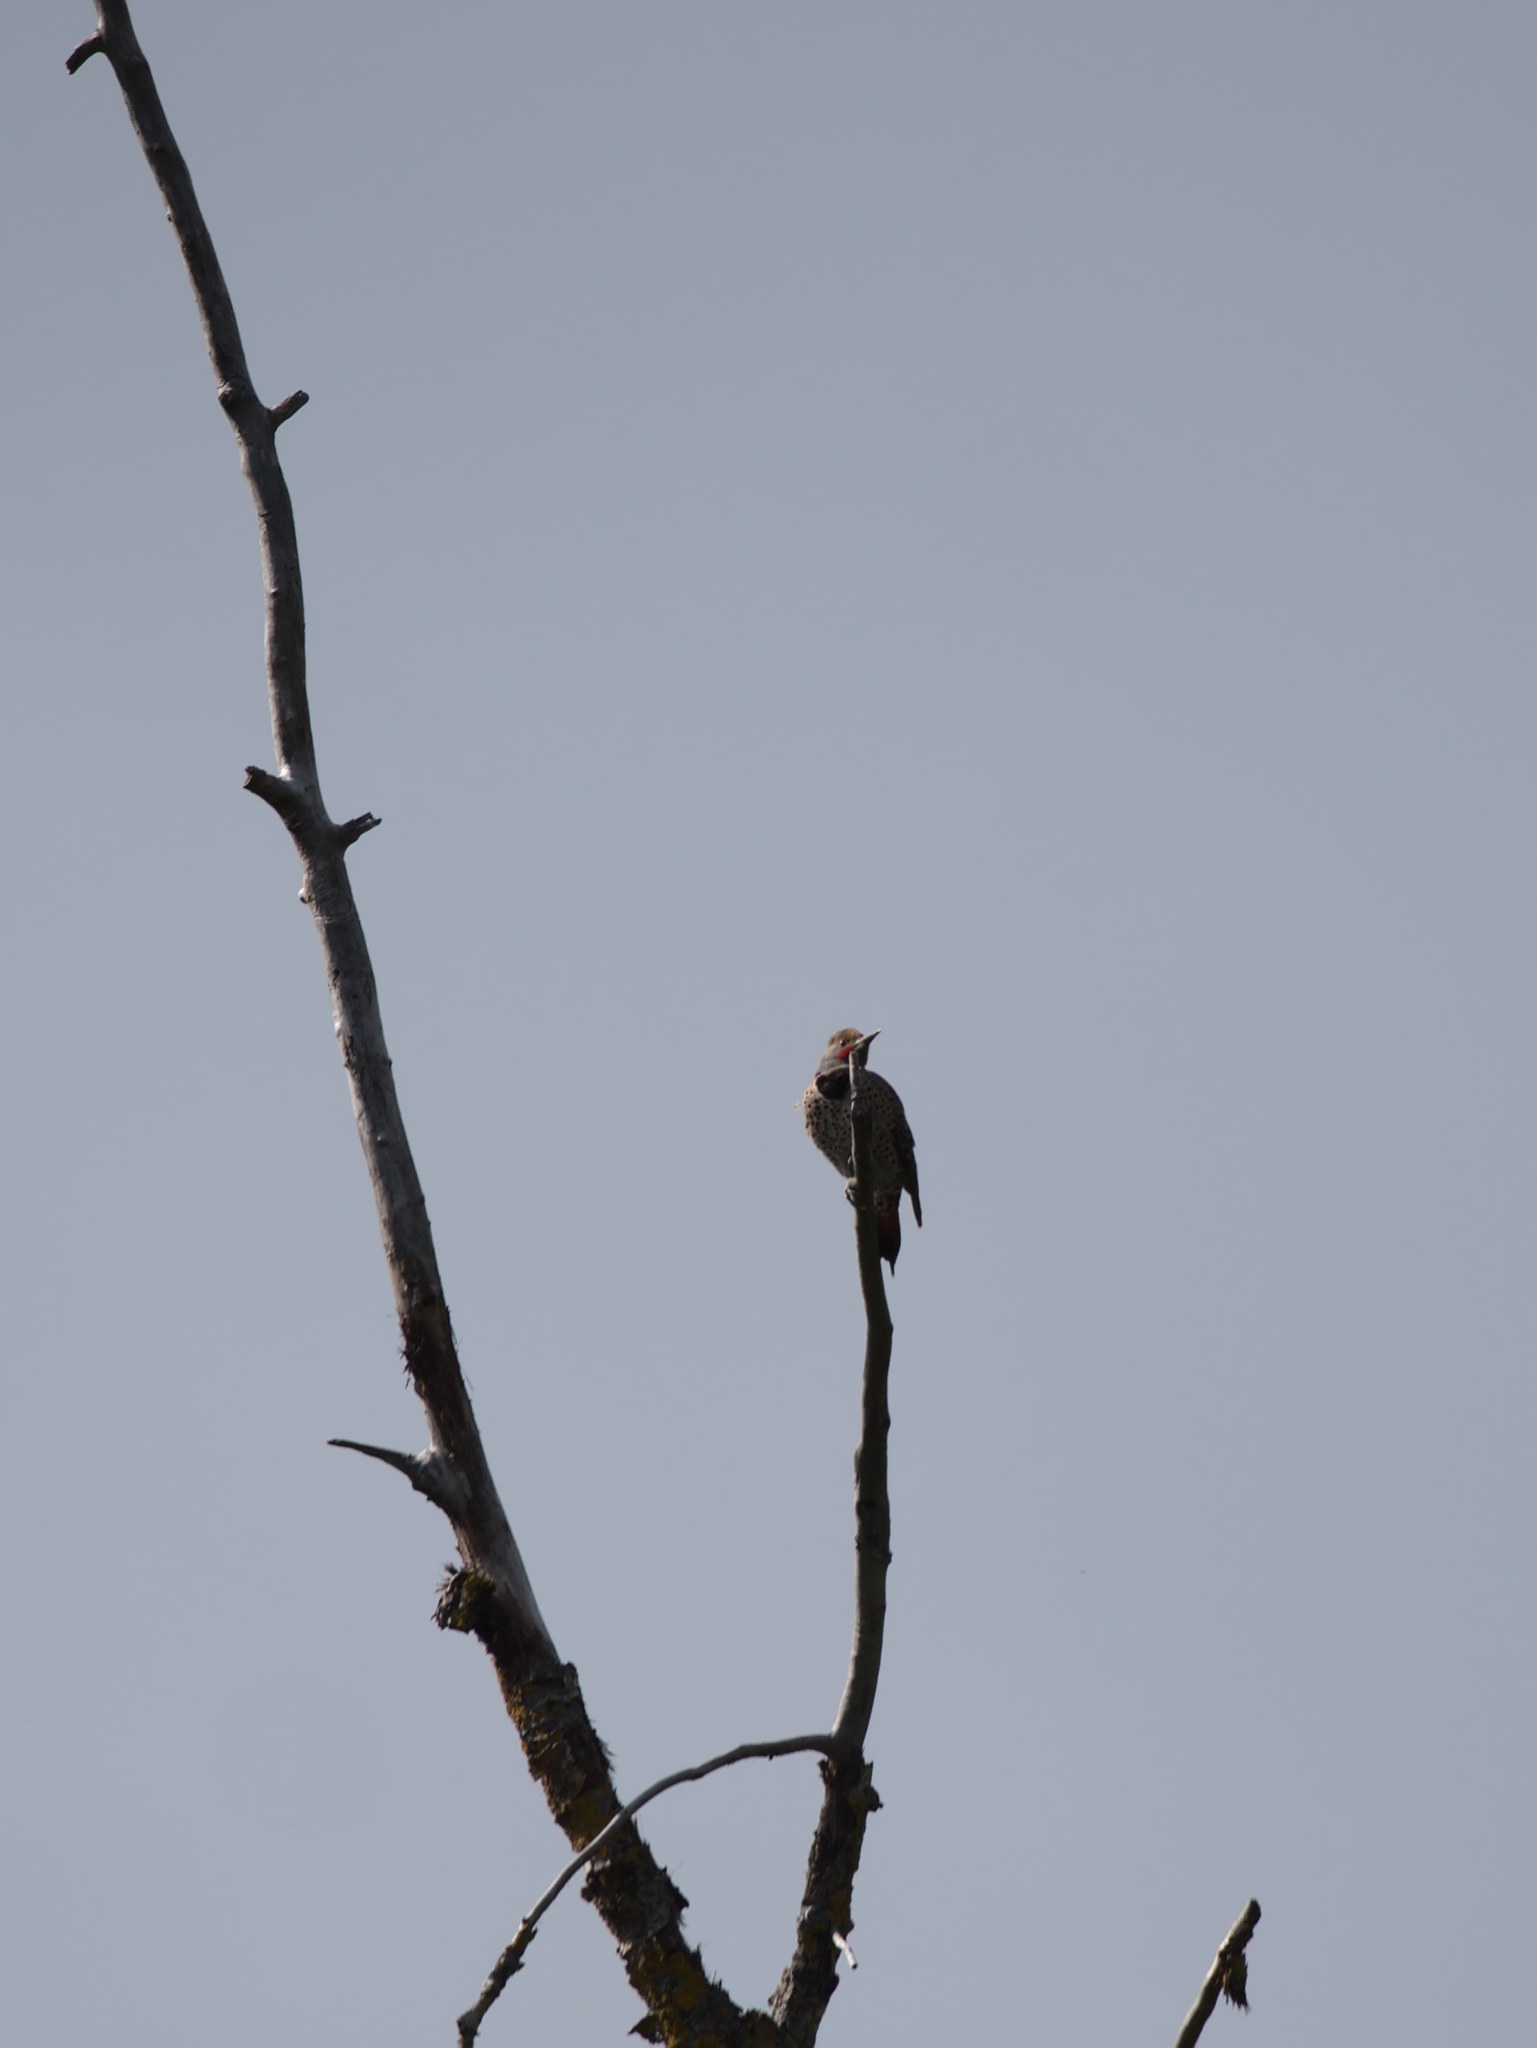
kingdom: Animalia
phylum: Chordata
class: Aves
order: Piciformes
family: Picidae
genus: Colaptes
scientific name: Colaptes auratus
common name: Northern flicker
